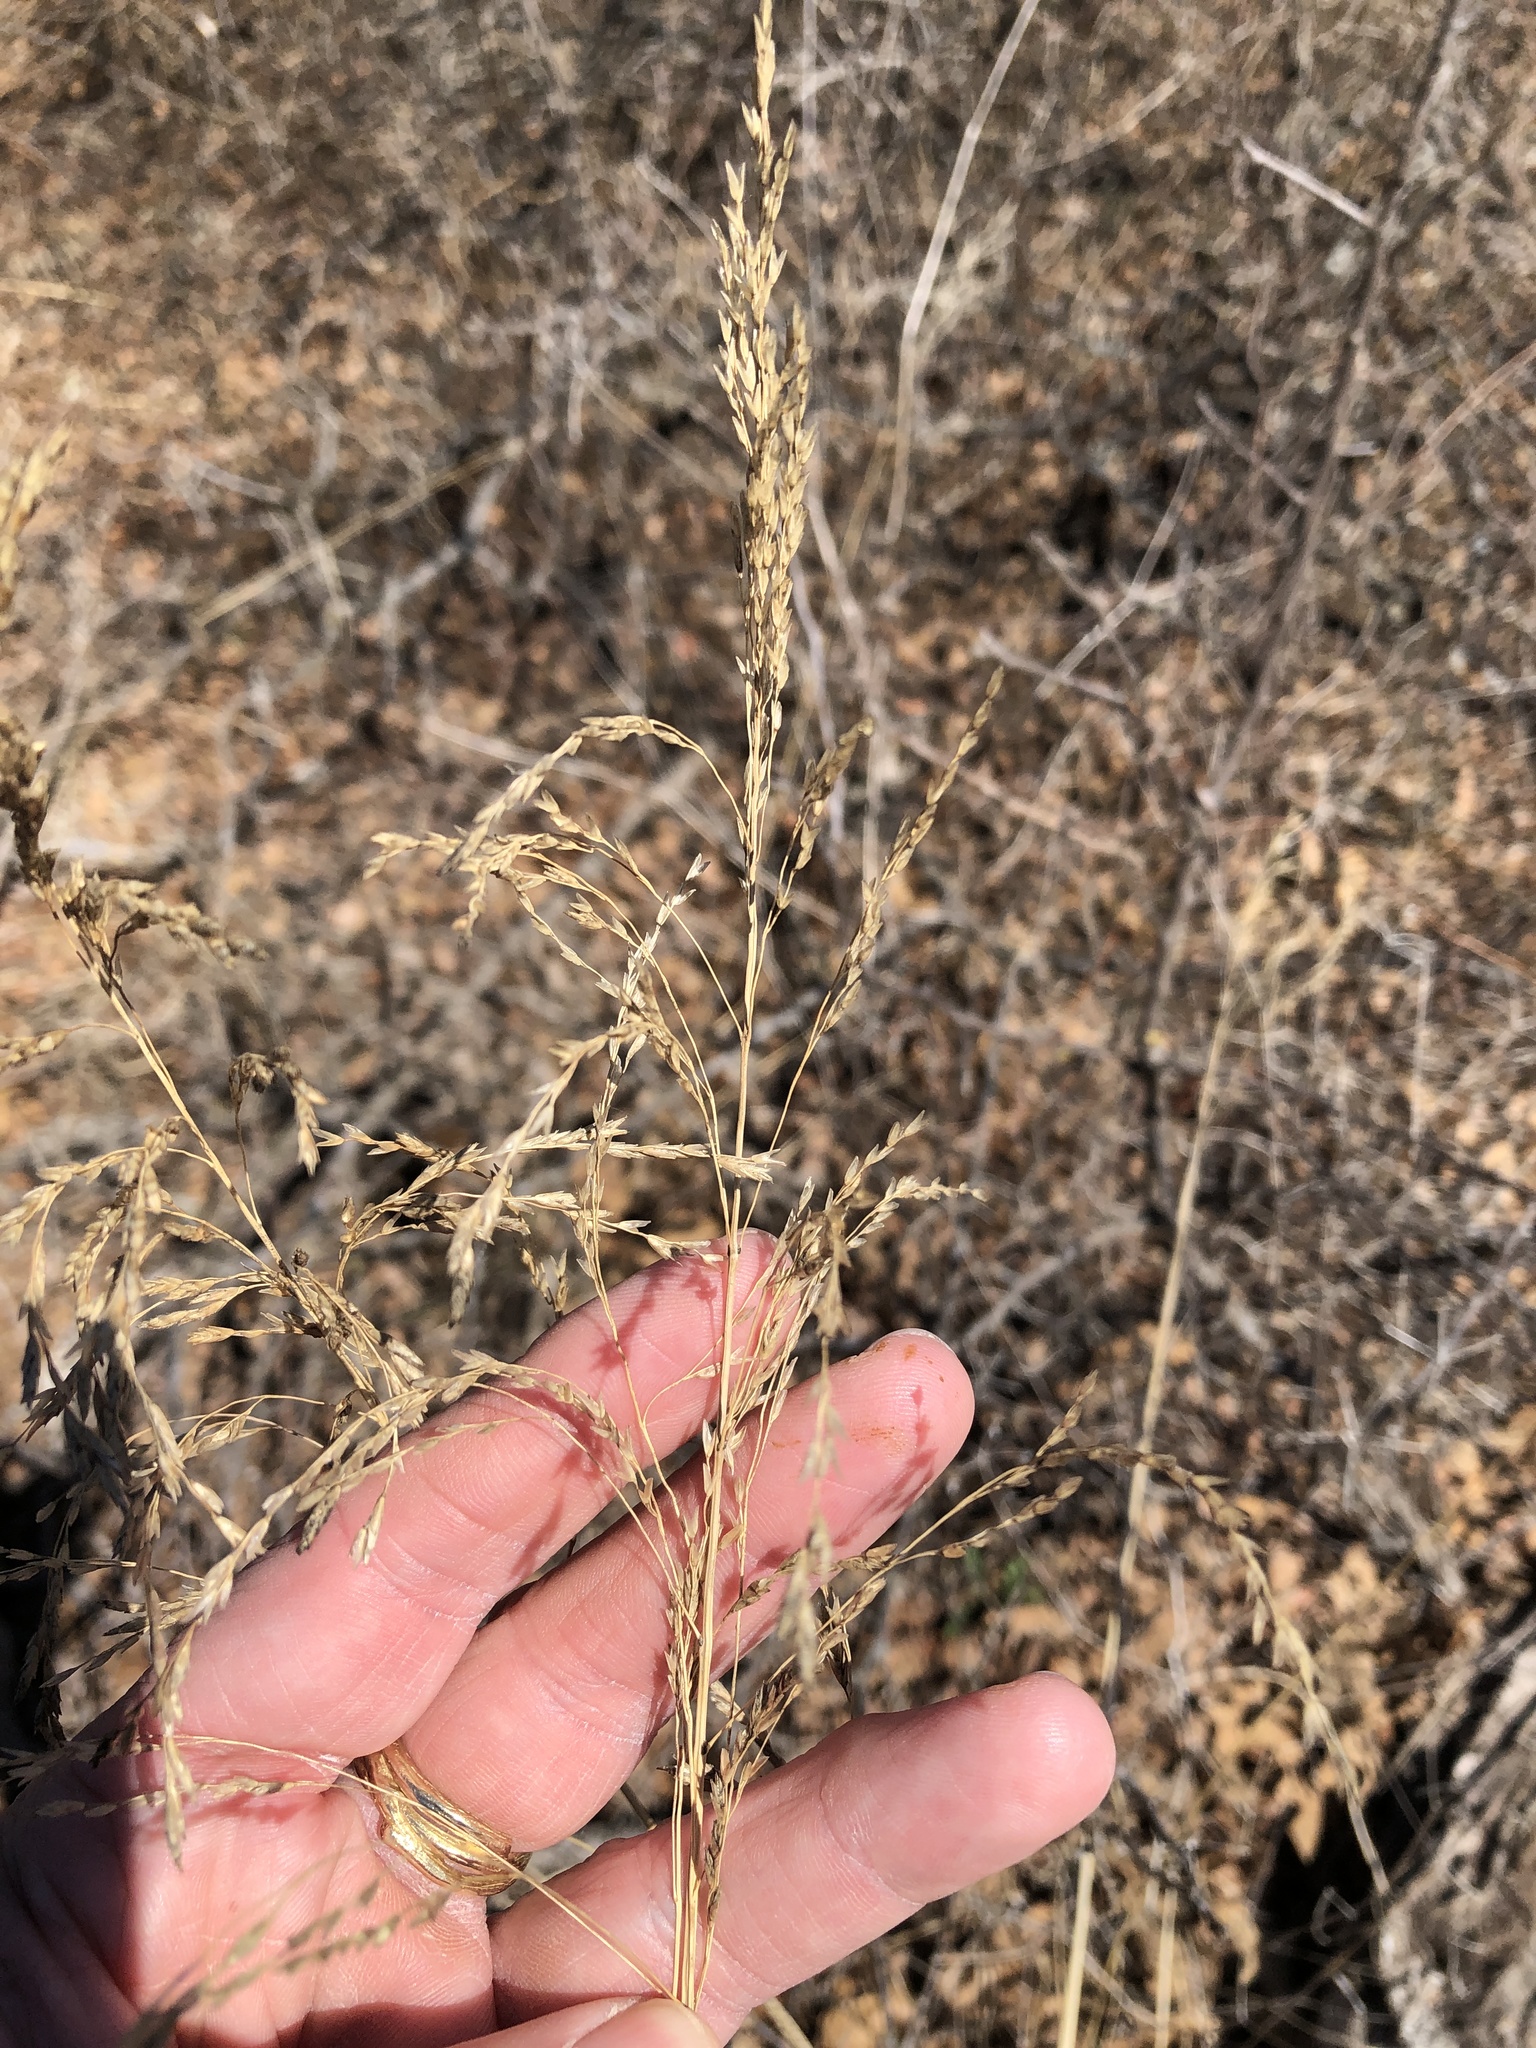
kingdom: Plantae
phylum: Tracheophyta
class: Liliopsida
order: Poales
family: Poaceae
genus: Tridens
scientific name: Tridens flavus
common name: Purpletop
